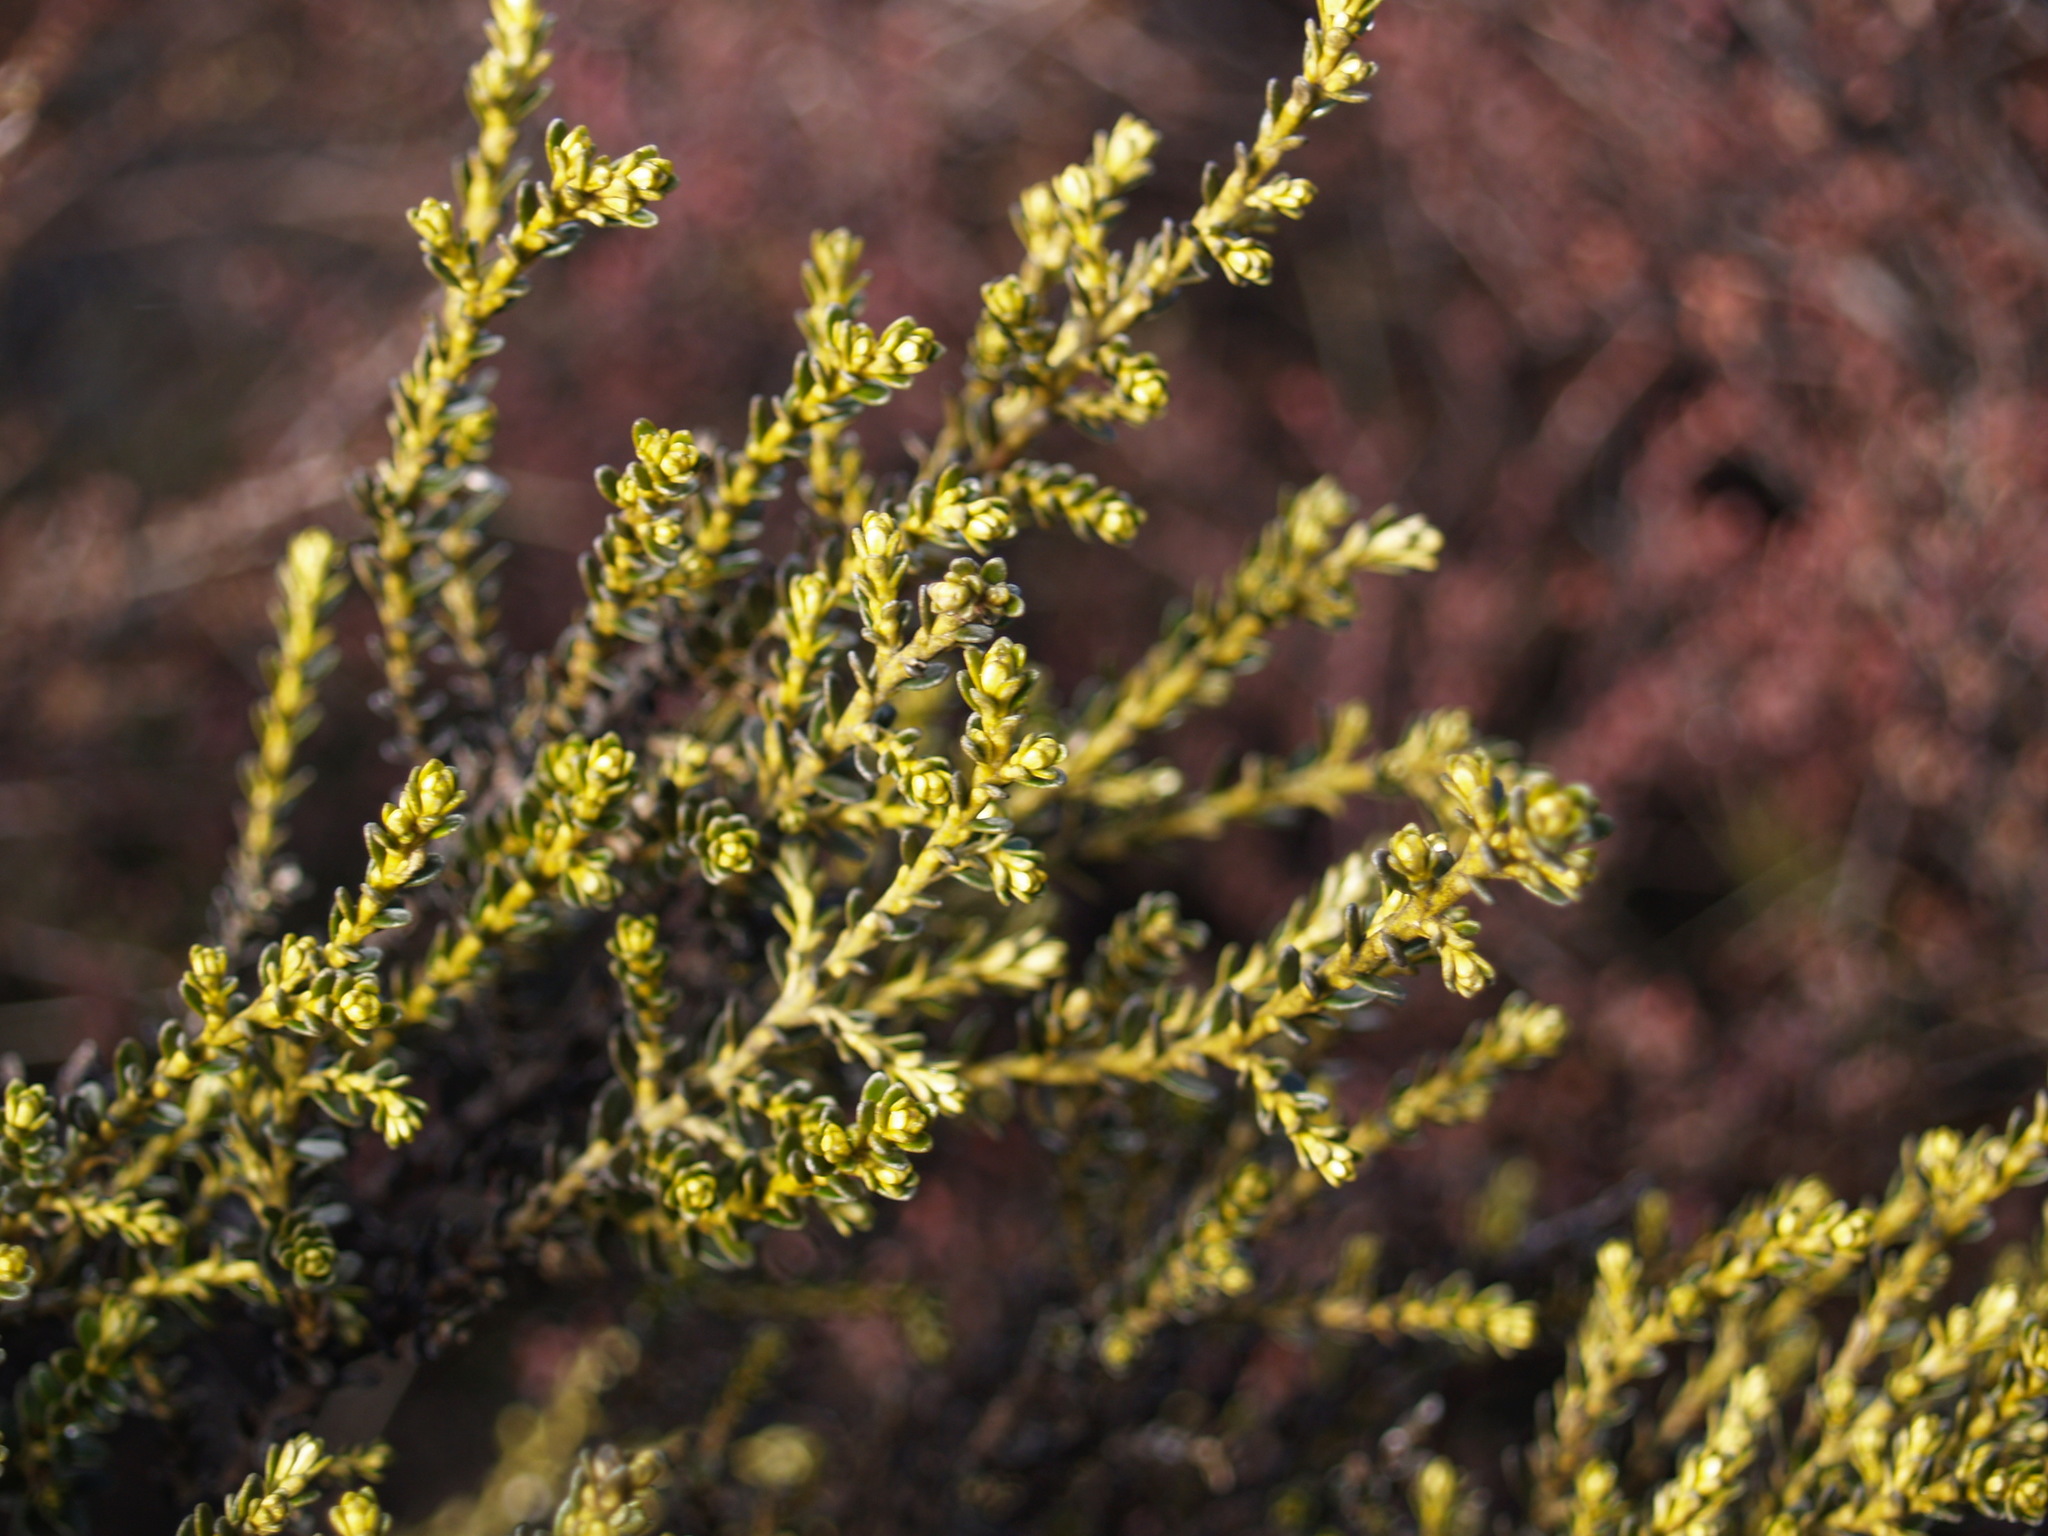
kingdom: Plantae
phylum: Tracheophyta
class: Magnoliopsida
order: Asterales
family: Asteraceae
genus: Ozothamnus
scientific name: Ozothamnus leptophyllus
